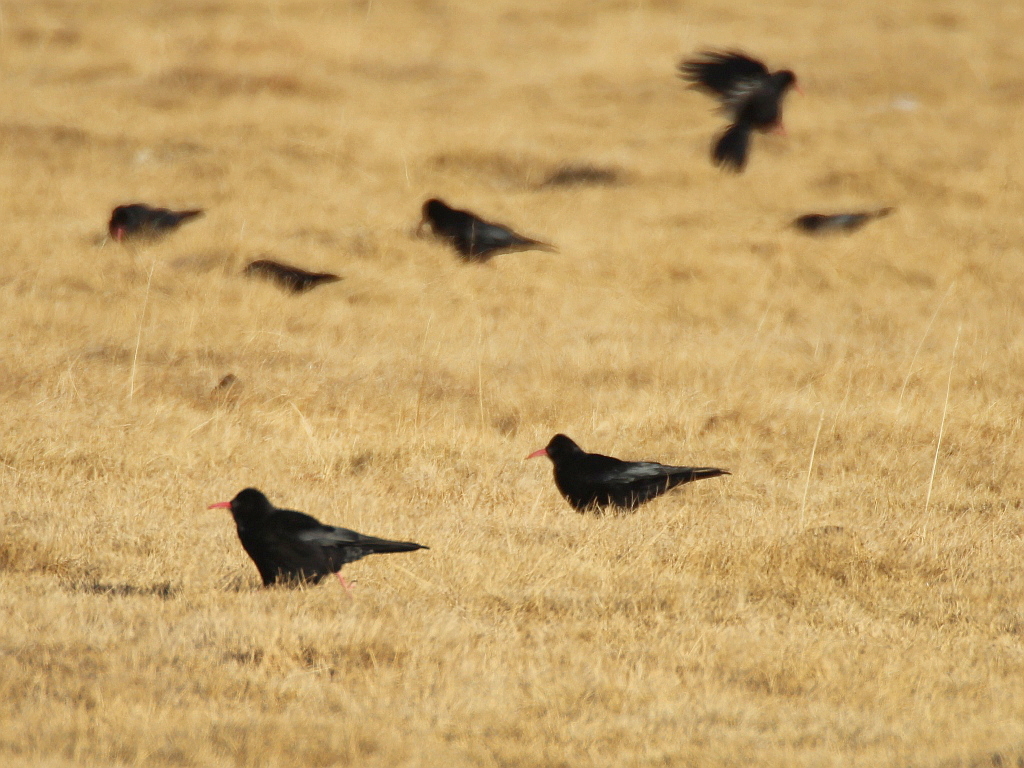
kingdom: Animalia
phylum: Chordata
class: Aves
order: Passeriformes
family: Corvidae
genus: Pyrrhocorax
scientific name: Pyrrhocorax pyrrhocorax
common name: Red-billed chough
